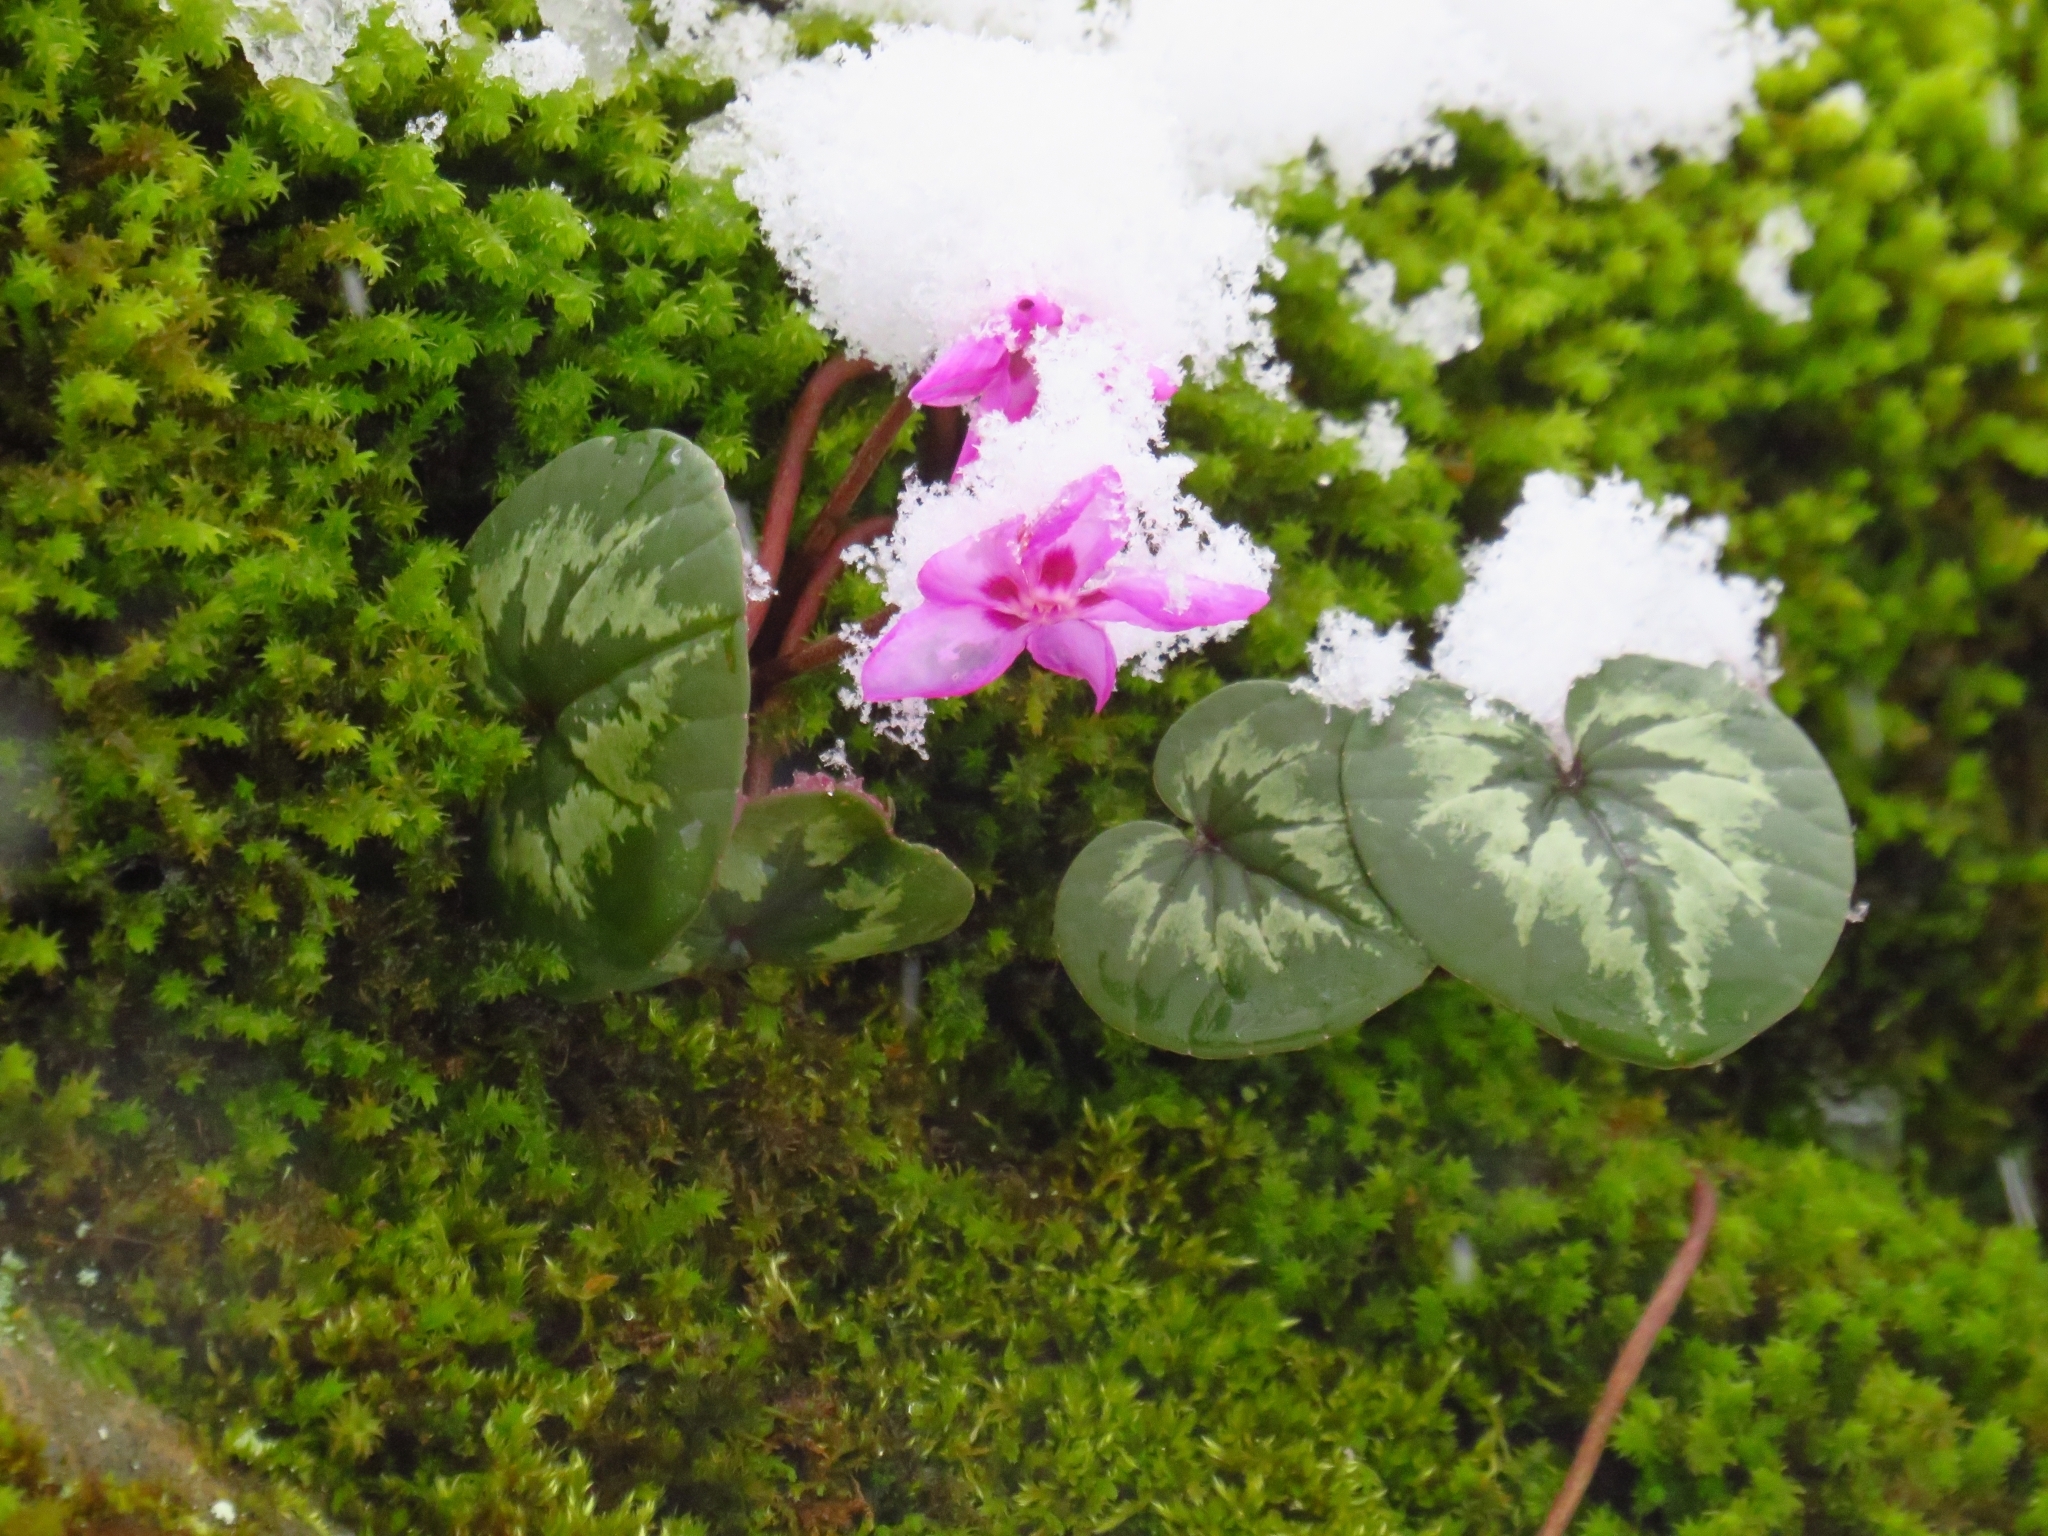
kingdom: Plantae
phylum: Tracheophyta
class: Magnoliopsida
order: Ericales
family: Primulaceae
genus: Cyclamen
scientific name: Cyclamen coum
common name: Eastern sowbread
